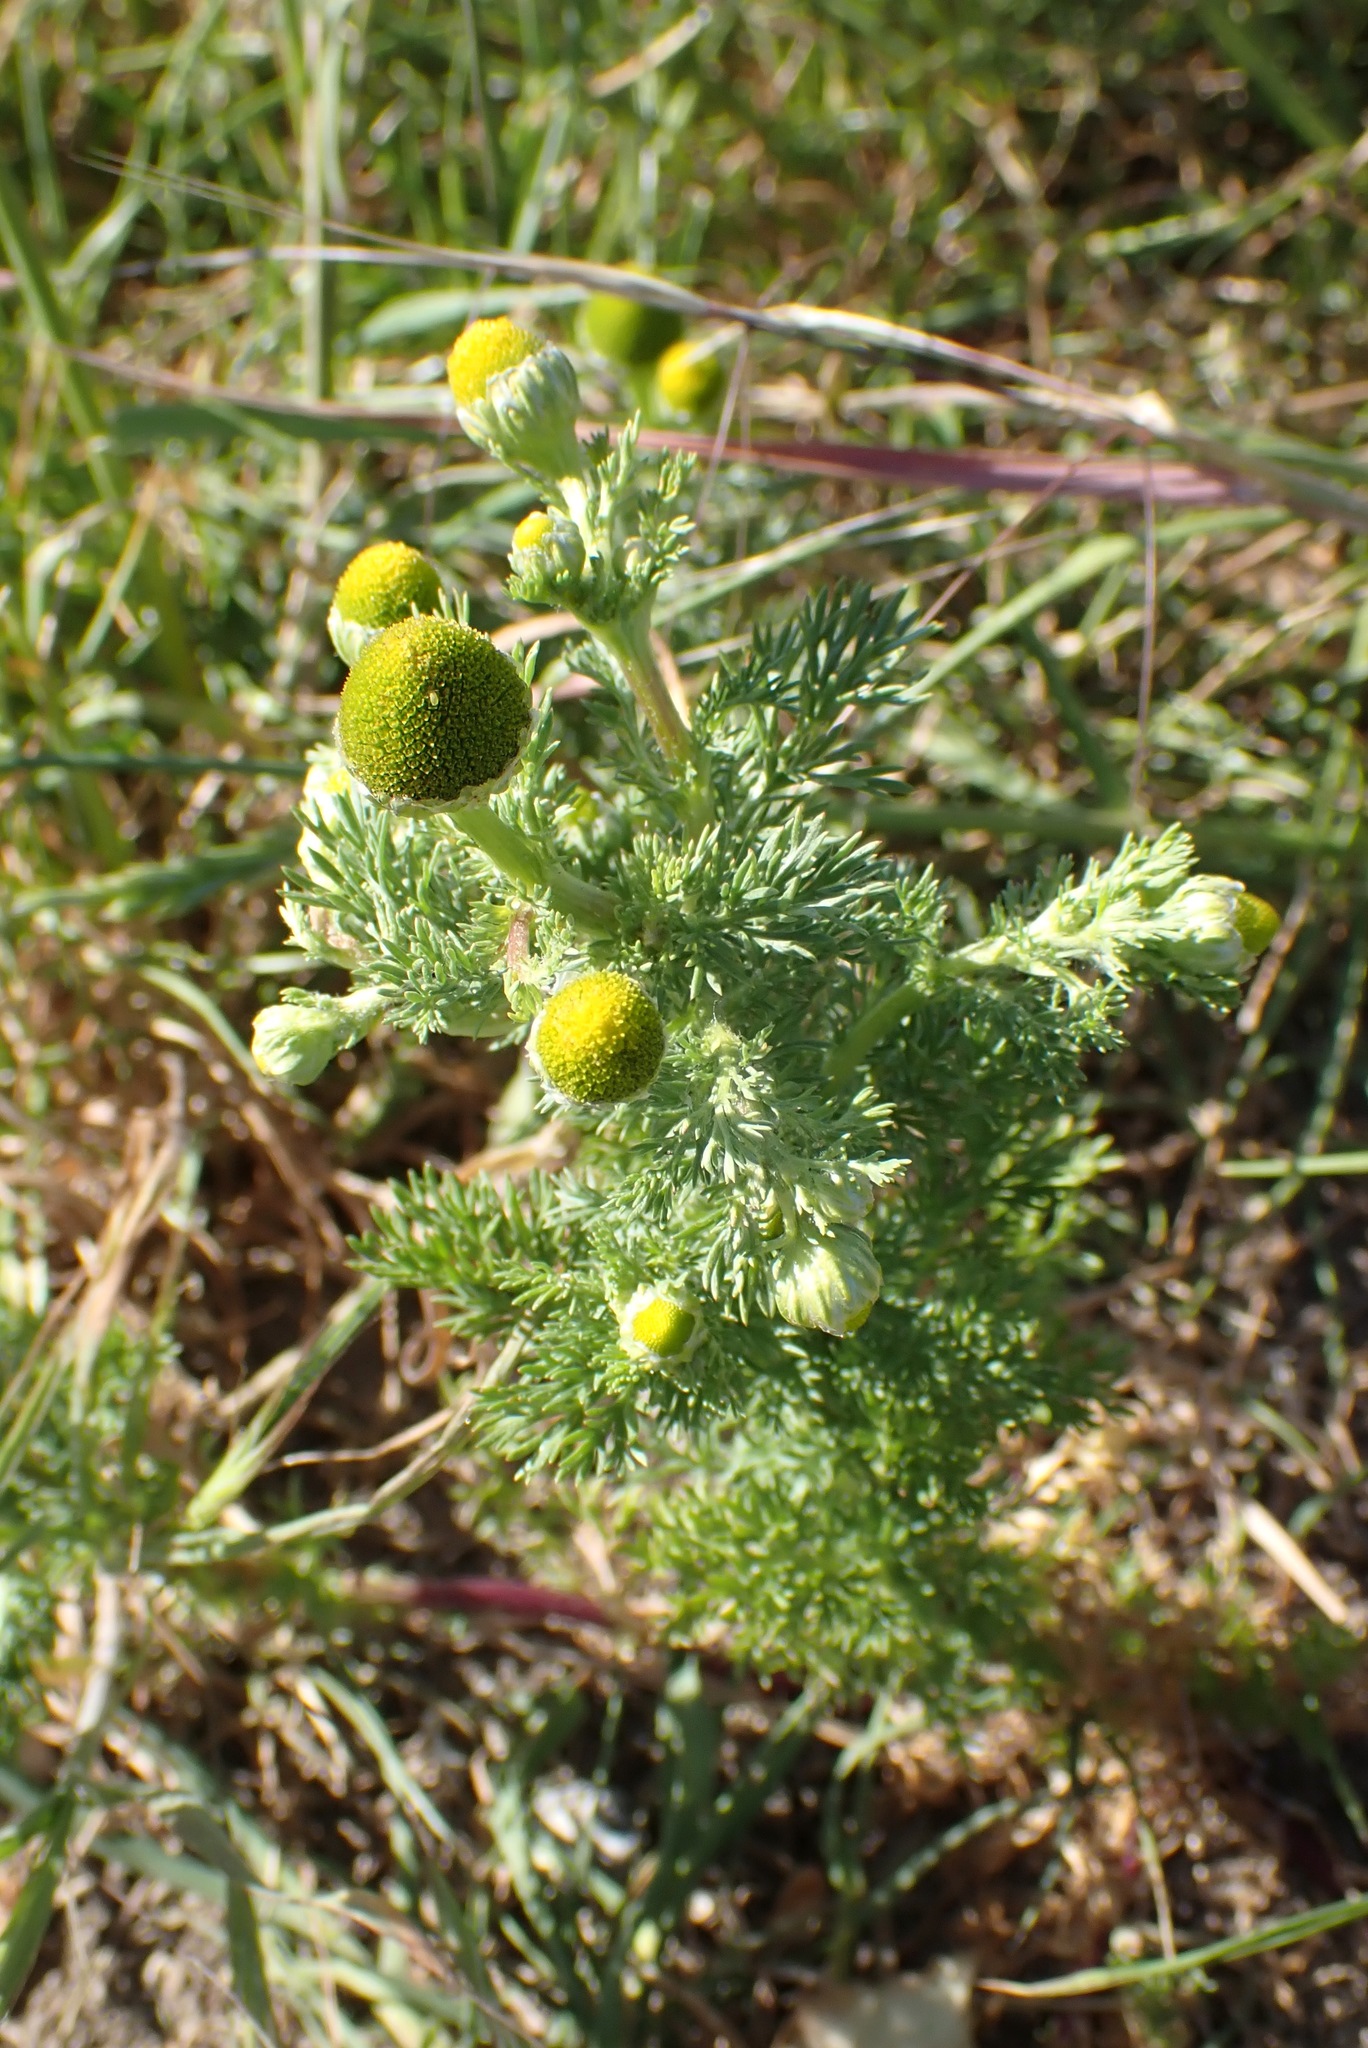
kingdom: Plantae
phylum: Tracheophyta
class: Magnoliopsida
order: Asterales
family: Asteraceae
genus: Matricaria
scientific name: Matricaria discoidea
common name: Disc mayweed
